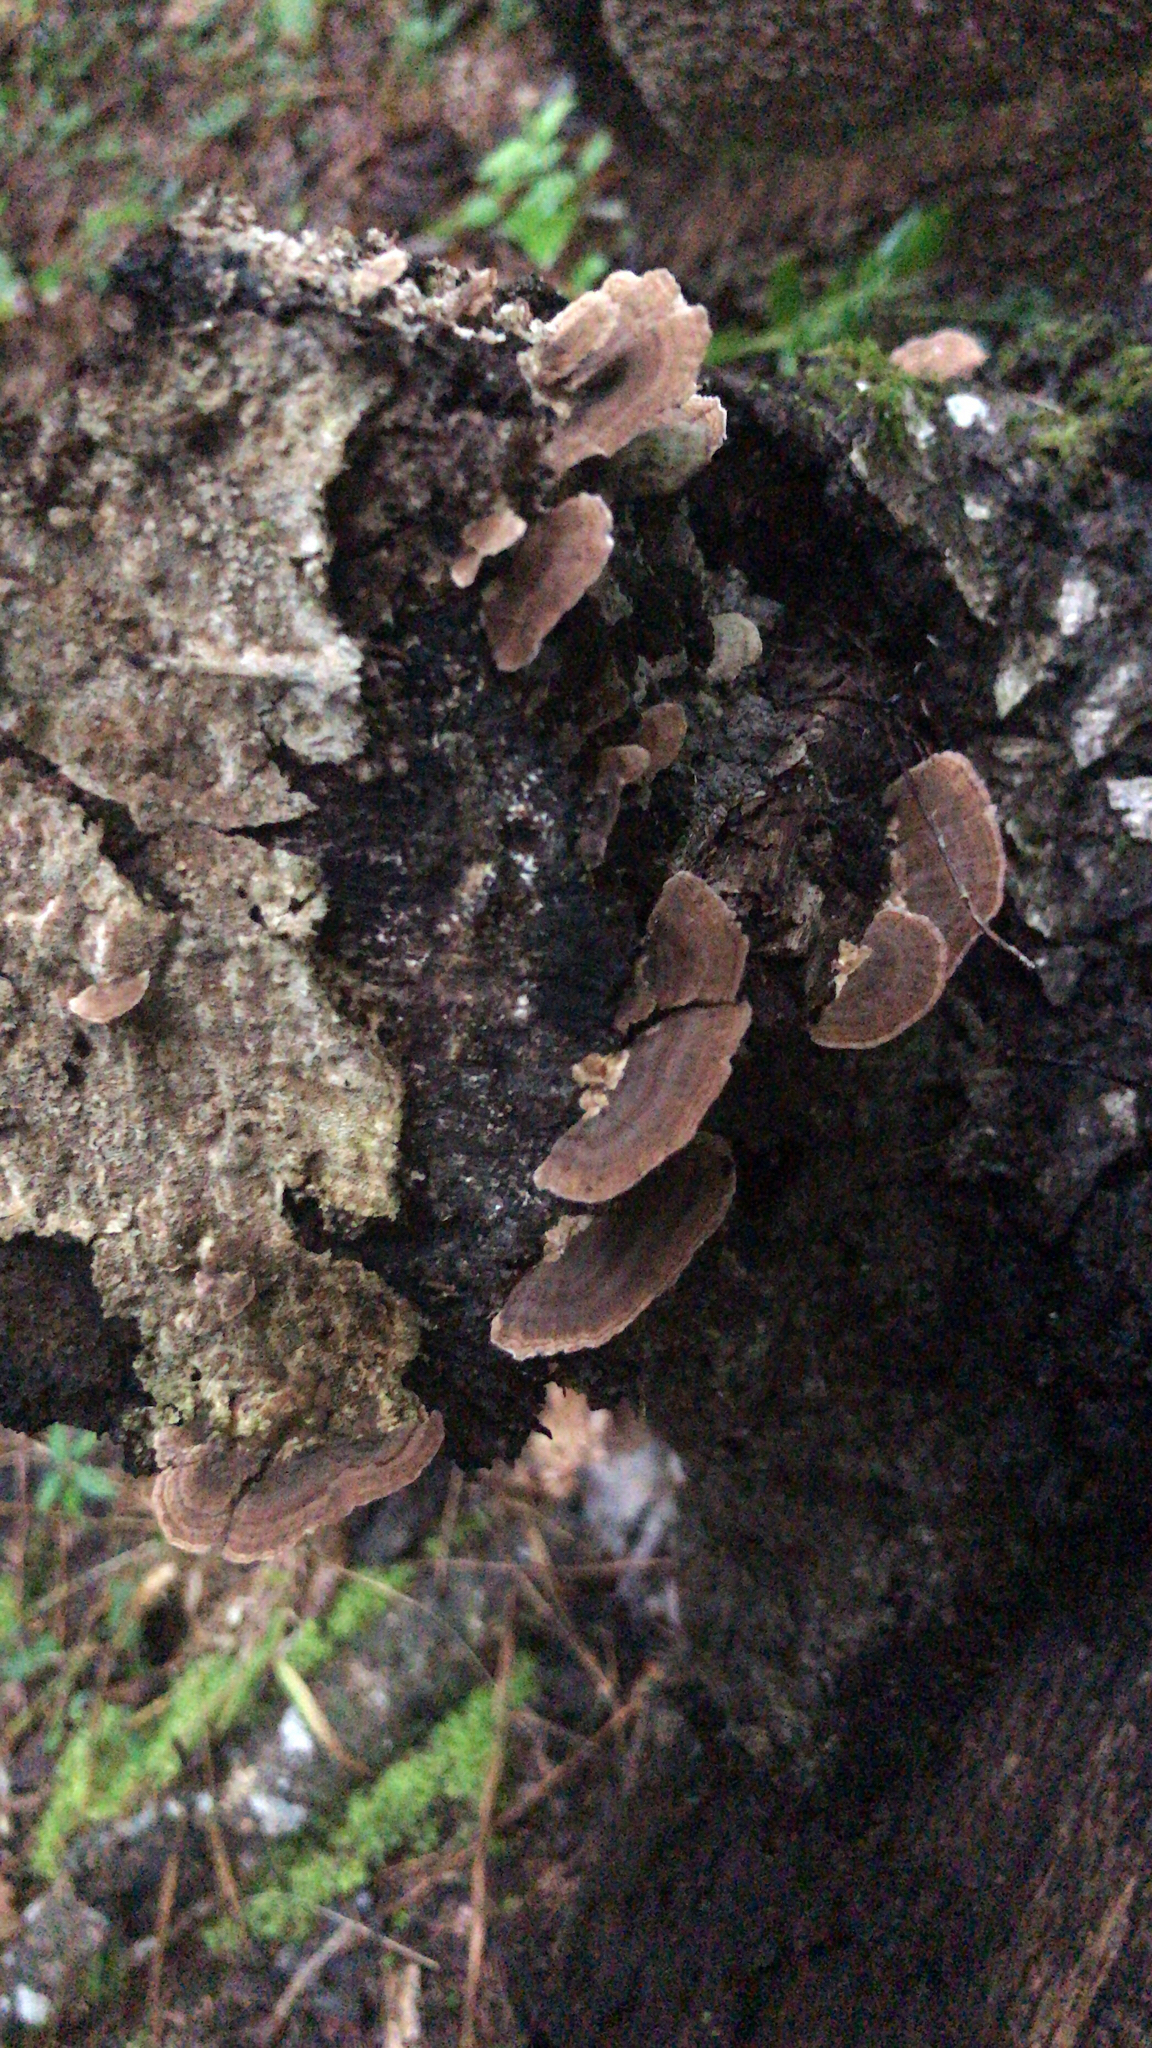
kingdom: Fungi
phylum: Basidiomycota
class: Agaricomycetes
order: Polyporales
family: Polyporaceae
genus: Trametes
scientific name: Trametes versicolor
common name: Turkeytail
